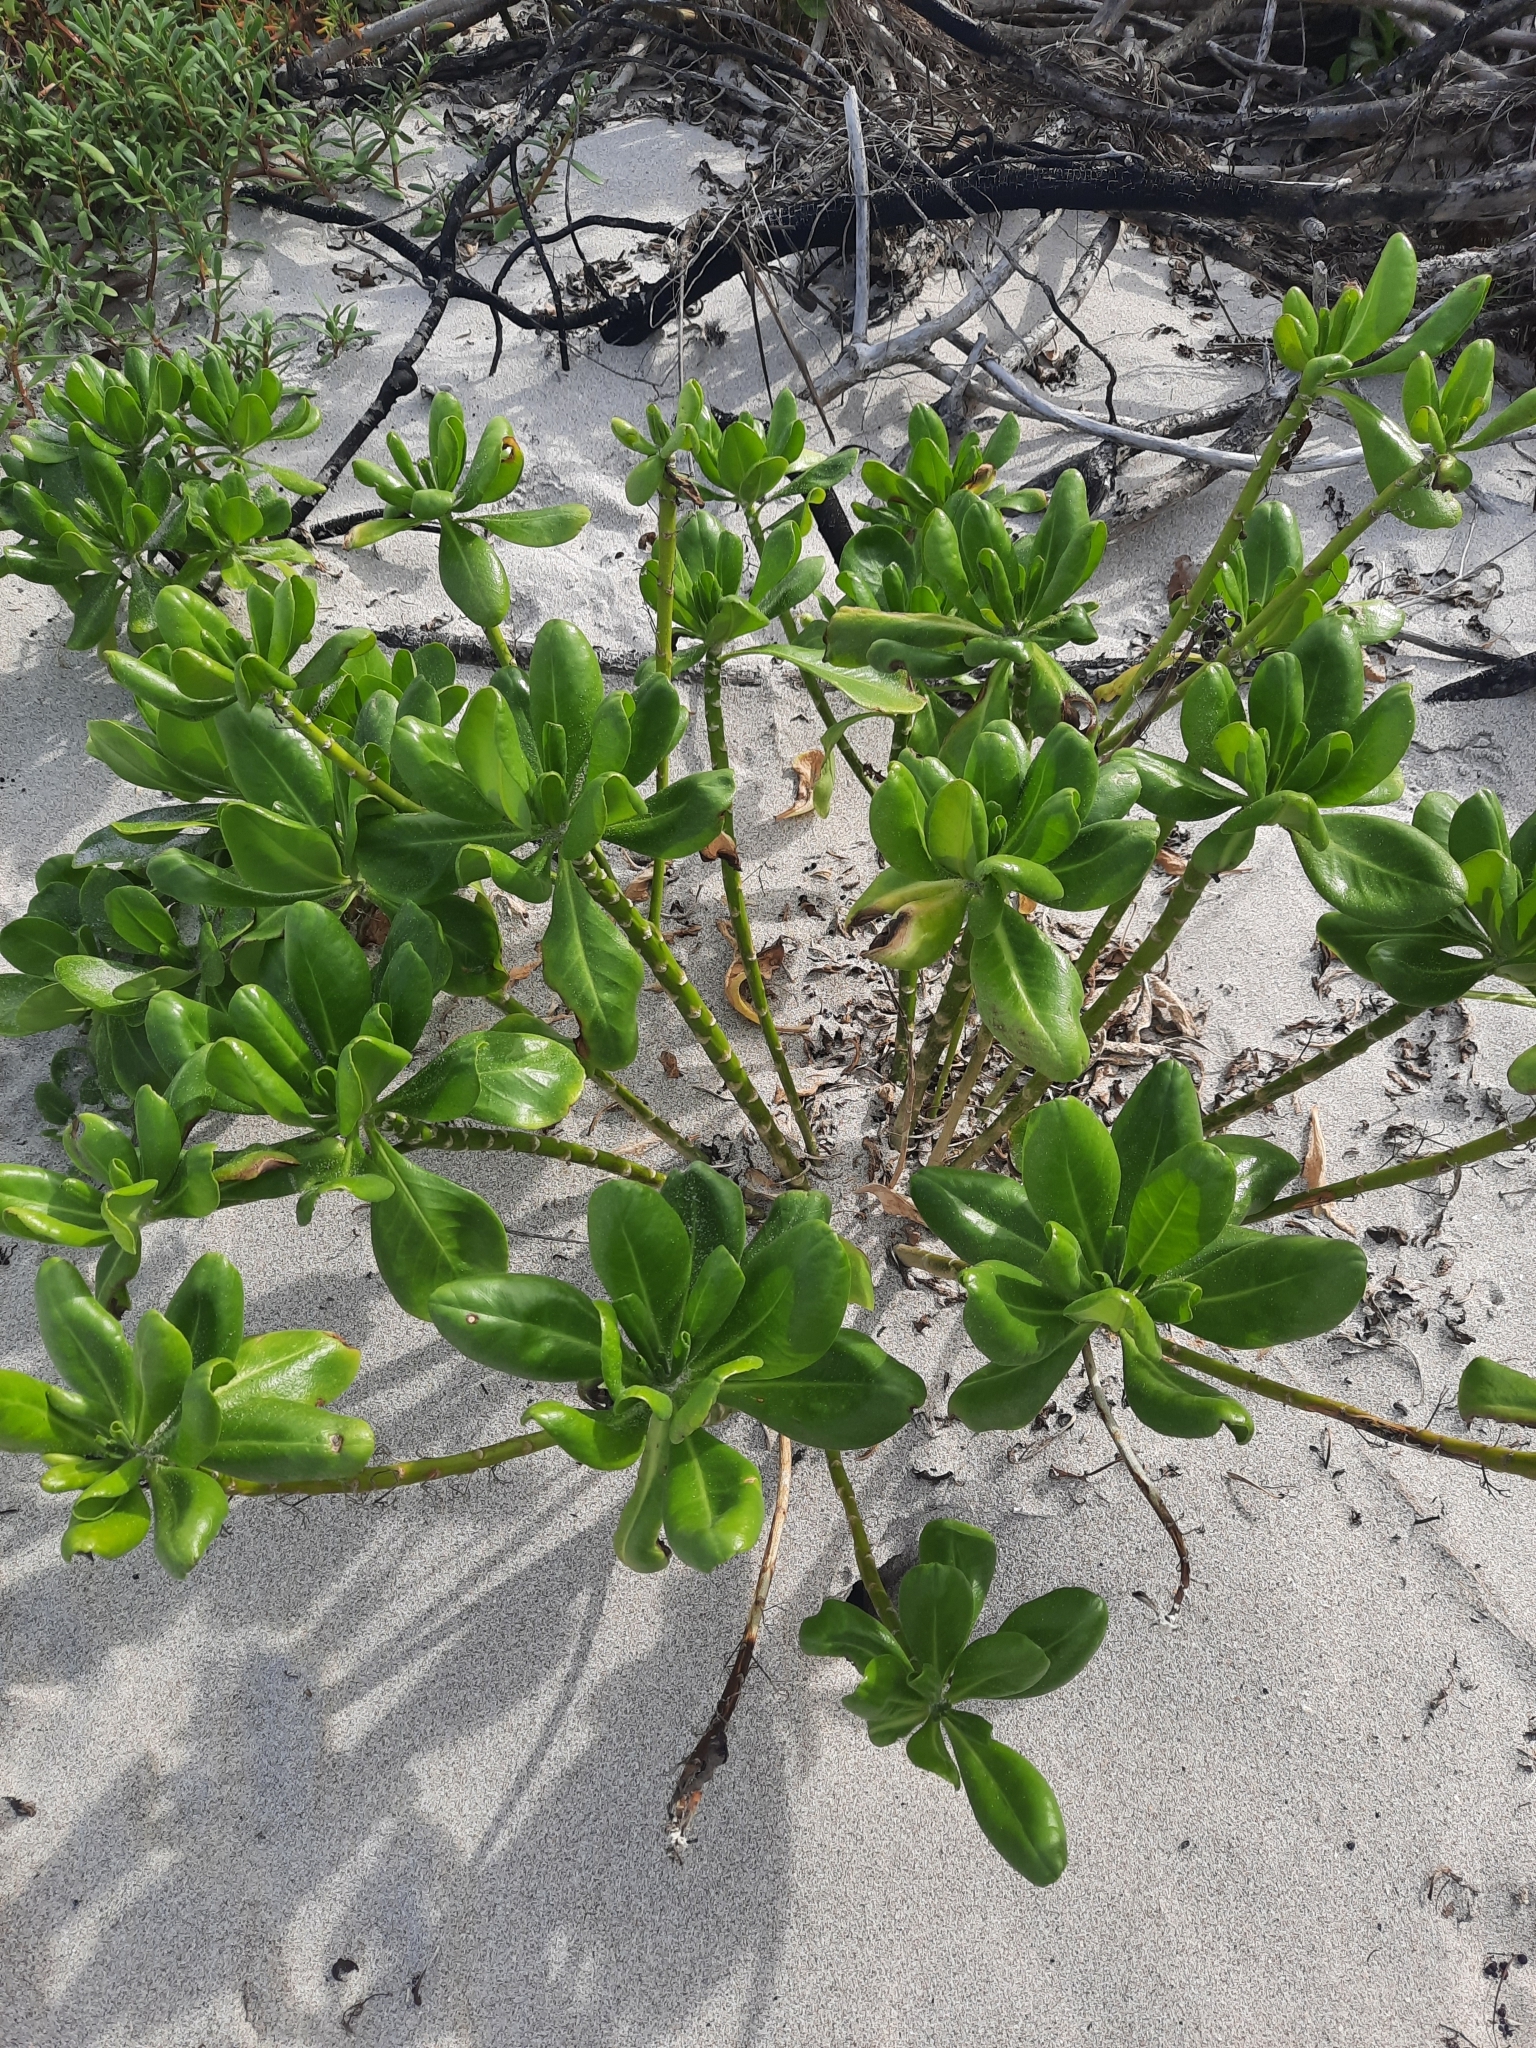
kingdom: Plantae
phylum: Tracheophyta
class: Magnoliopsida
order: Asterales
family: Goodeniaceae
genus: Scaevola
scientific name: Scaevola taccada
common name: Sea lettucetree
